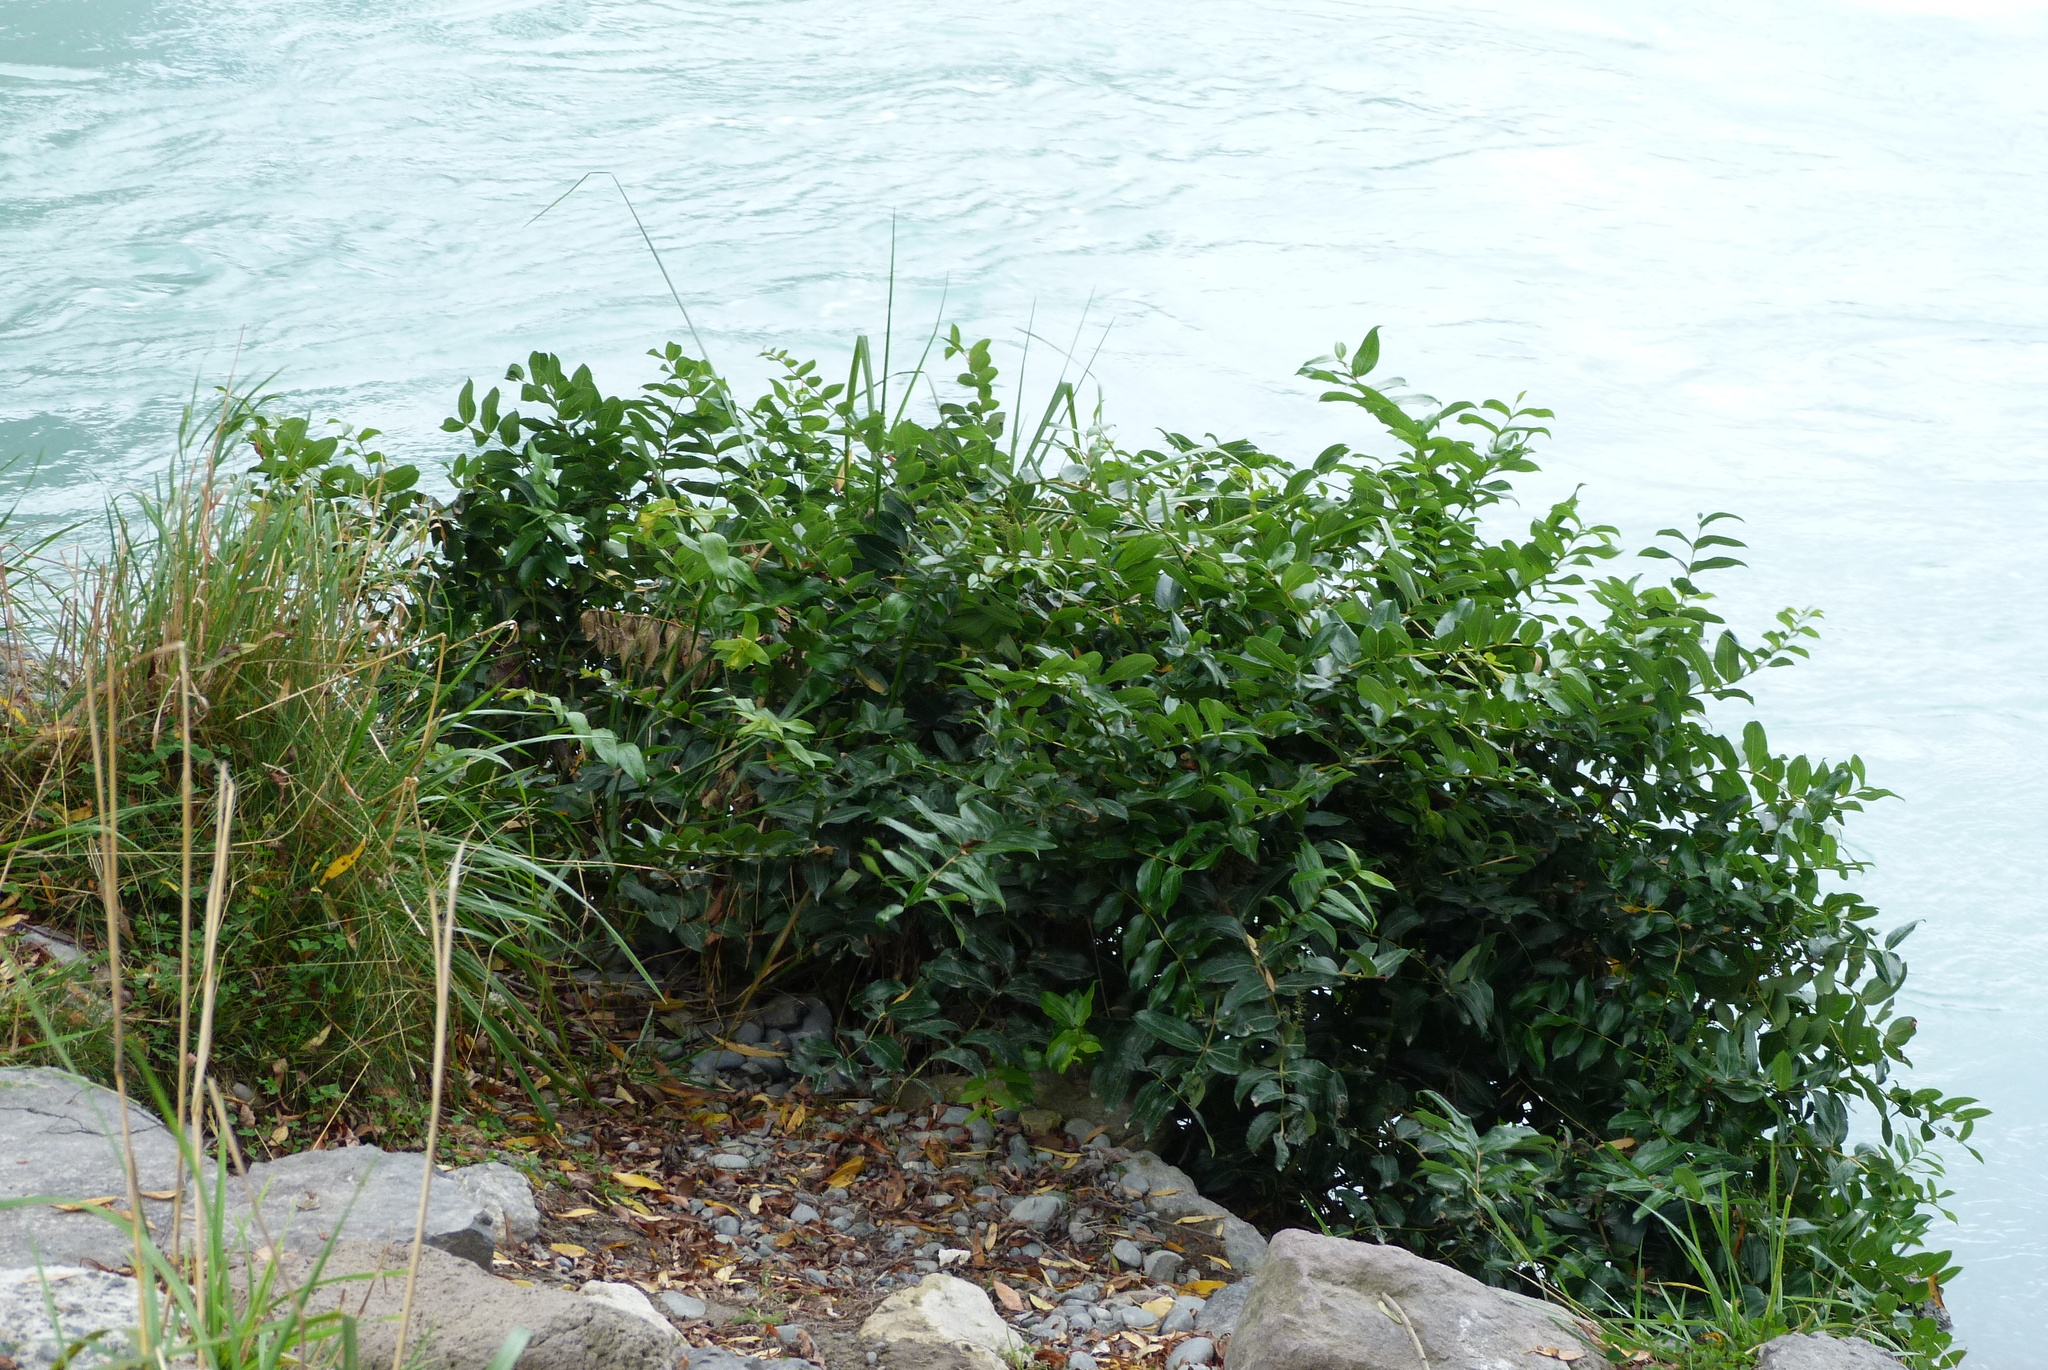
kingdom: Plantae
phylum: Tracheophyta
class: Magnoliopsida
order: Cucurbitales
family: Coriariaceae
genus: Coriaria
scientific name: Coriaria arborea
